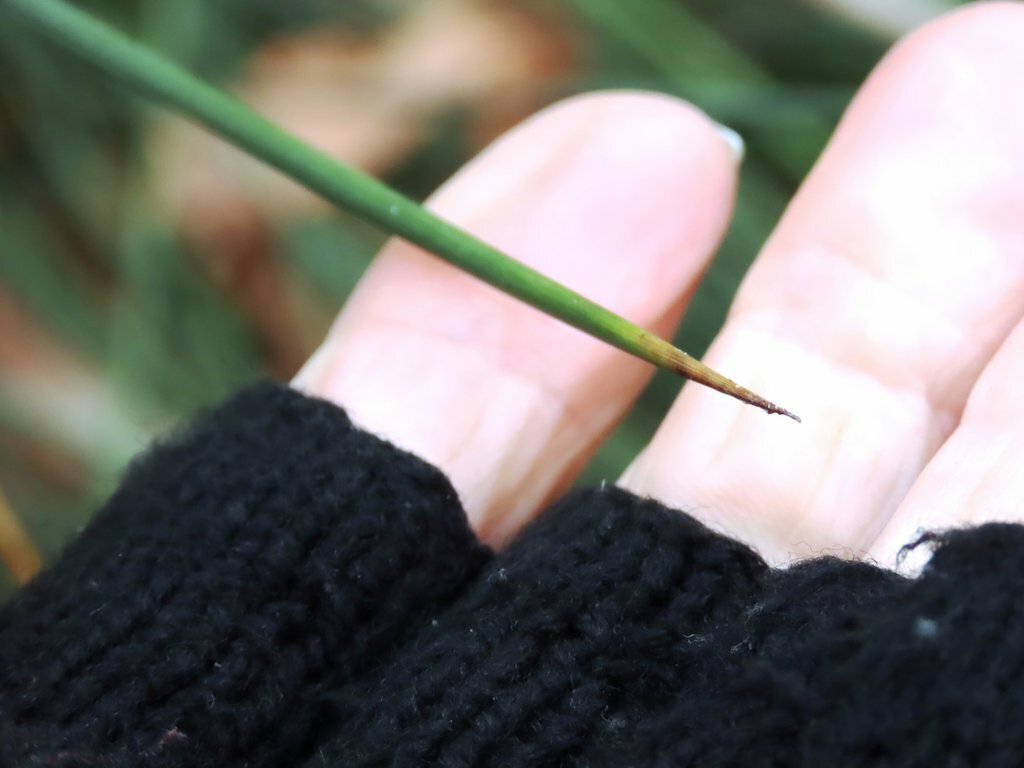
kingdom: Plantae
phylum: Tracheophyta
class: Liliopsida
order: Poales
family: Juncaceae
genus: Juncus
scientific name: Juncus acutus
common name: Sharp rush
